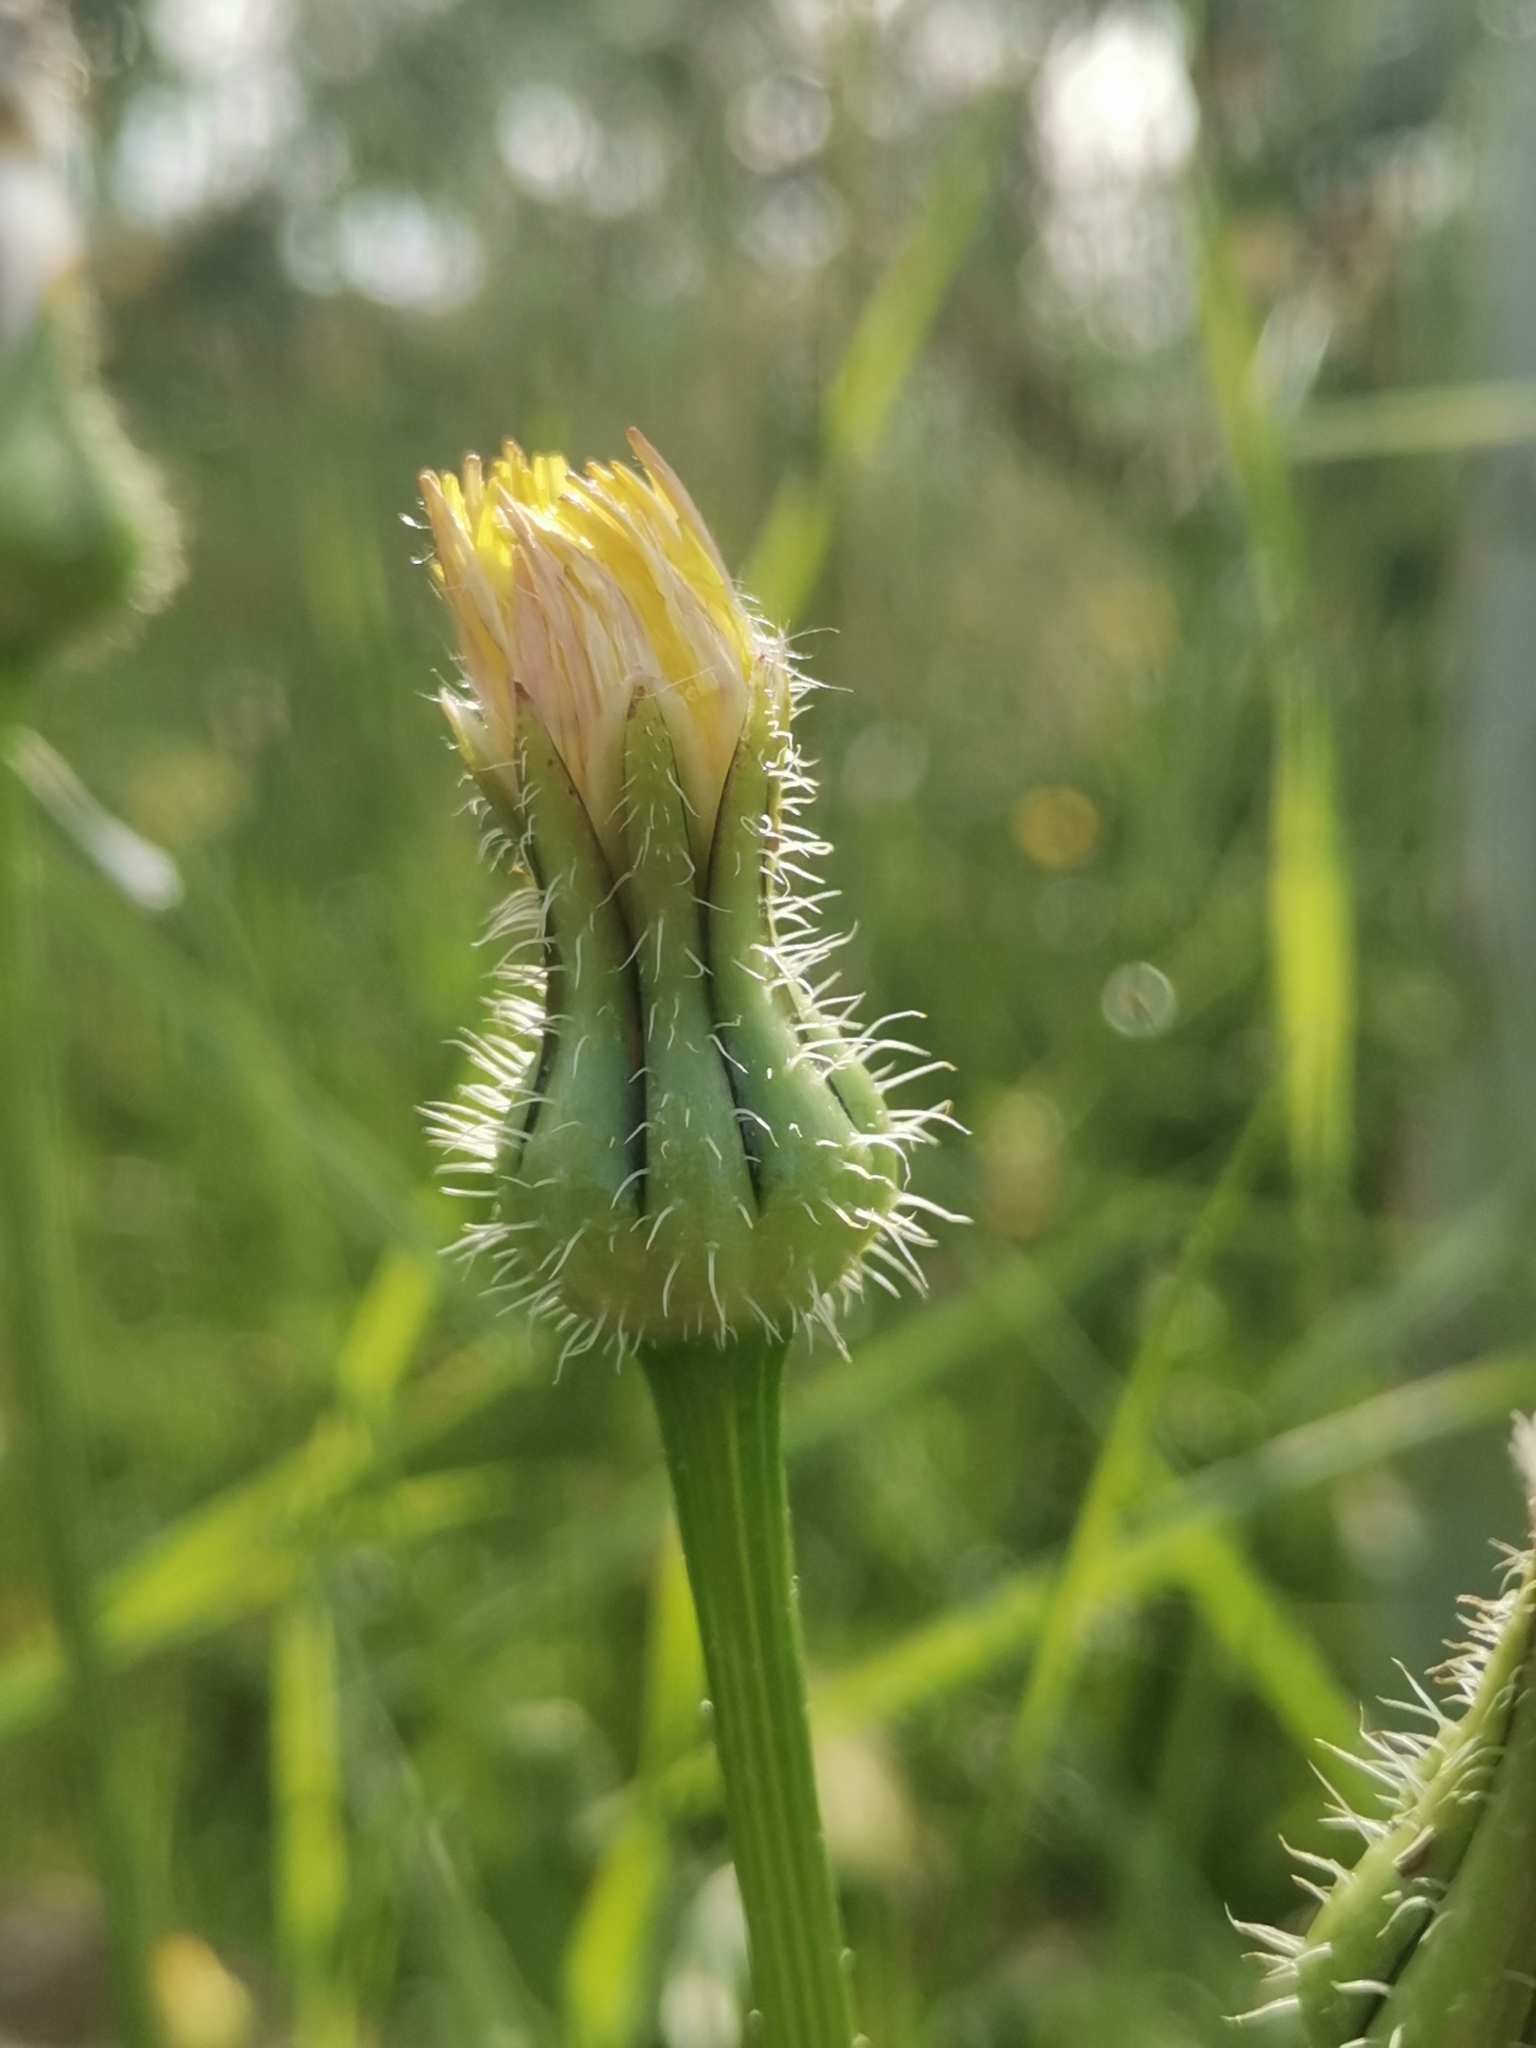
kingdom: Plantae
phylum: Tracheophyta
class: Magnoliopsida
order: Asterales
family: Asteraceae
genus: Urospermum
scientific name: Urospermum picroides
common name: False hawkbit
